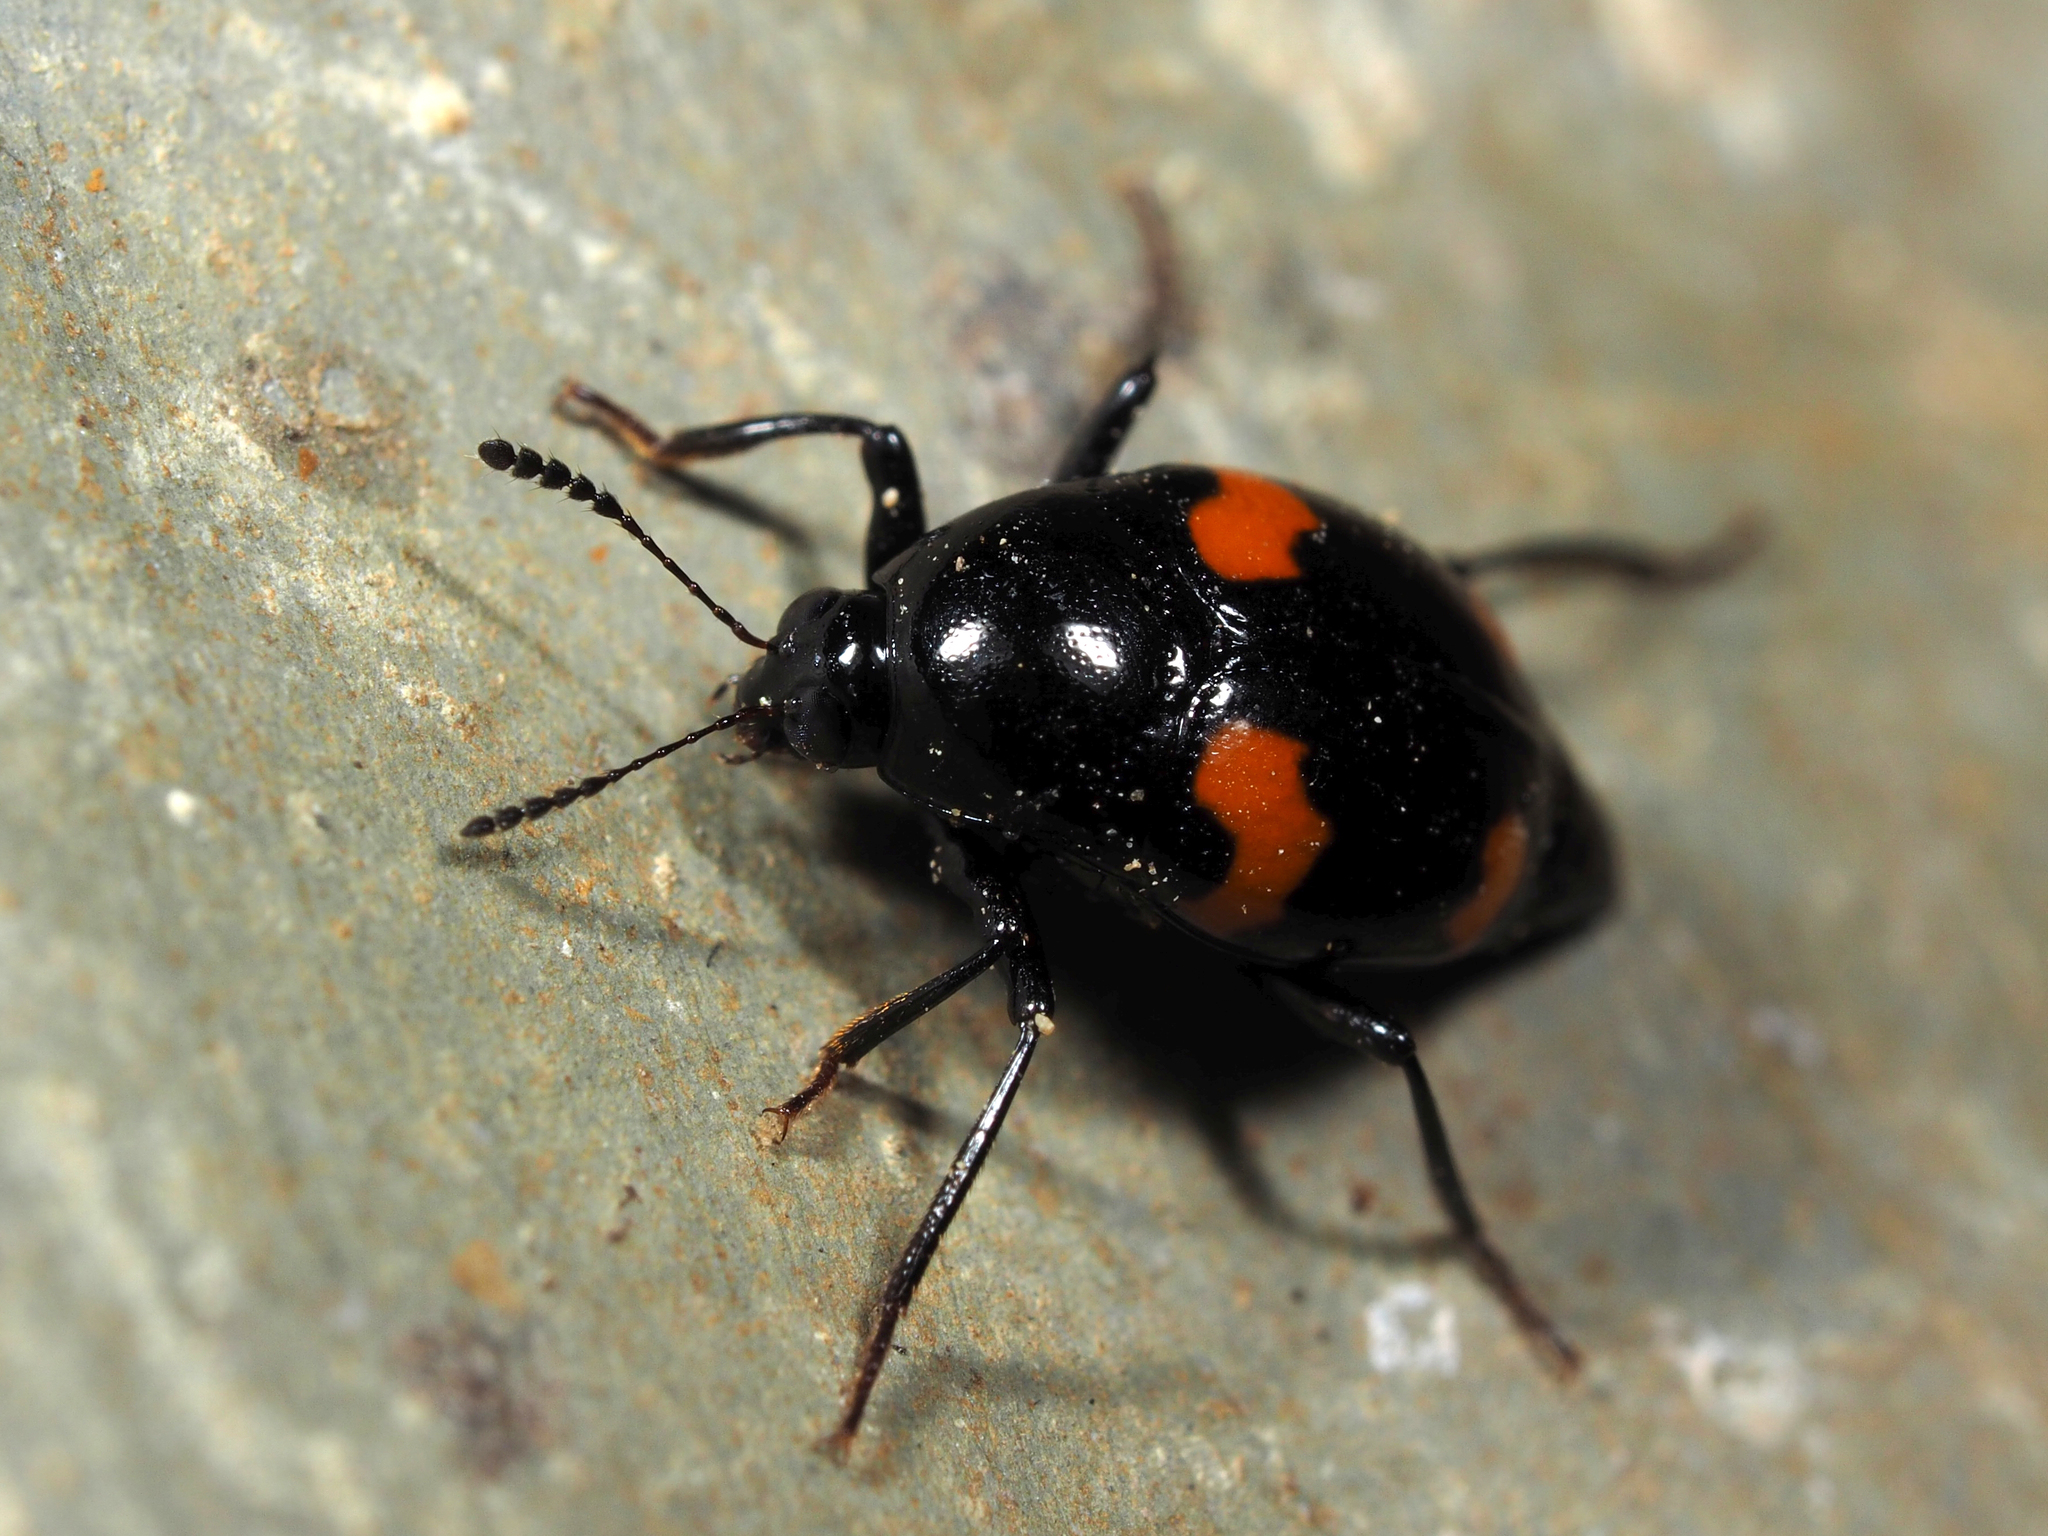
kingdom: Animalia
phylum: Arthropoda
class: Insecta
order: Coleoptera
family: Staphylinidae
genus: Scaphidium
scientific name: Scaphidium quadrimaculatum
